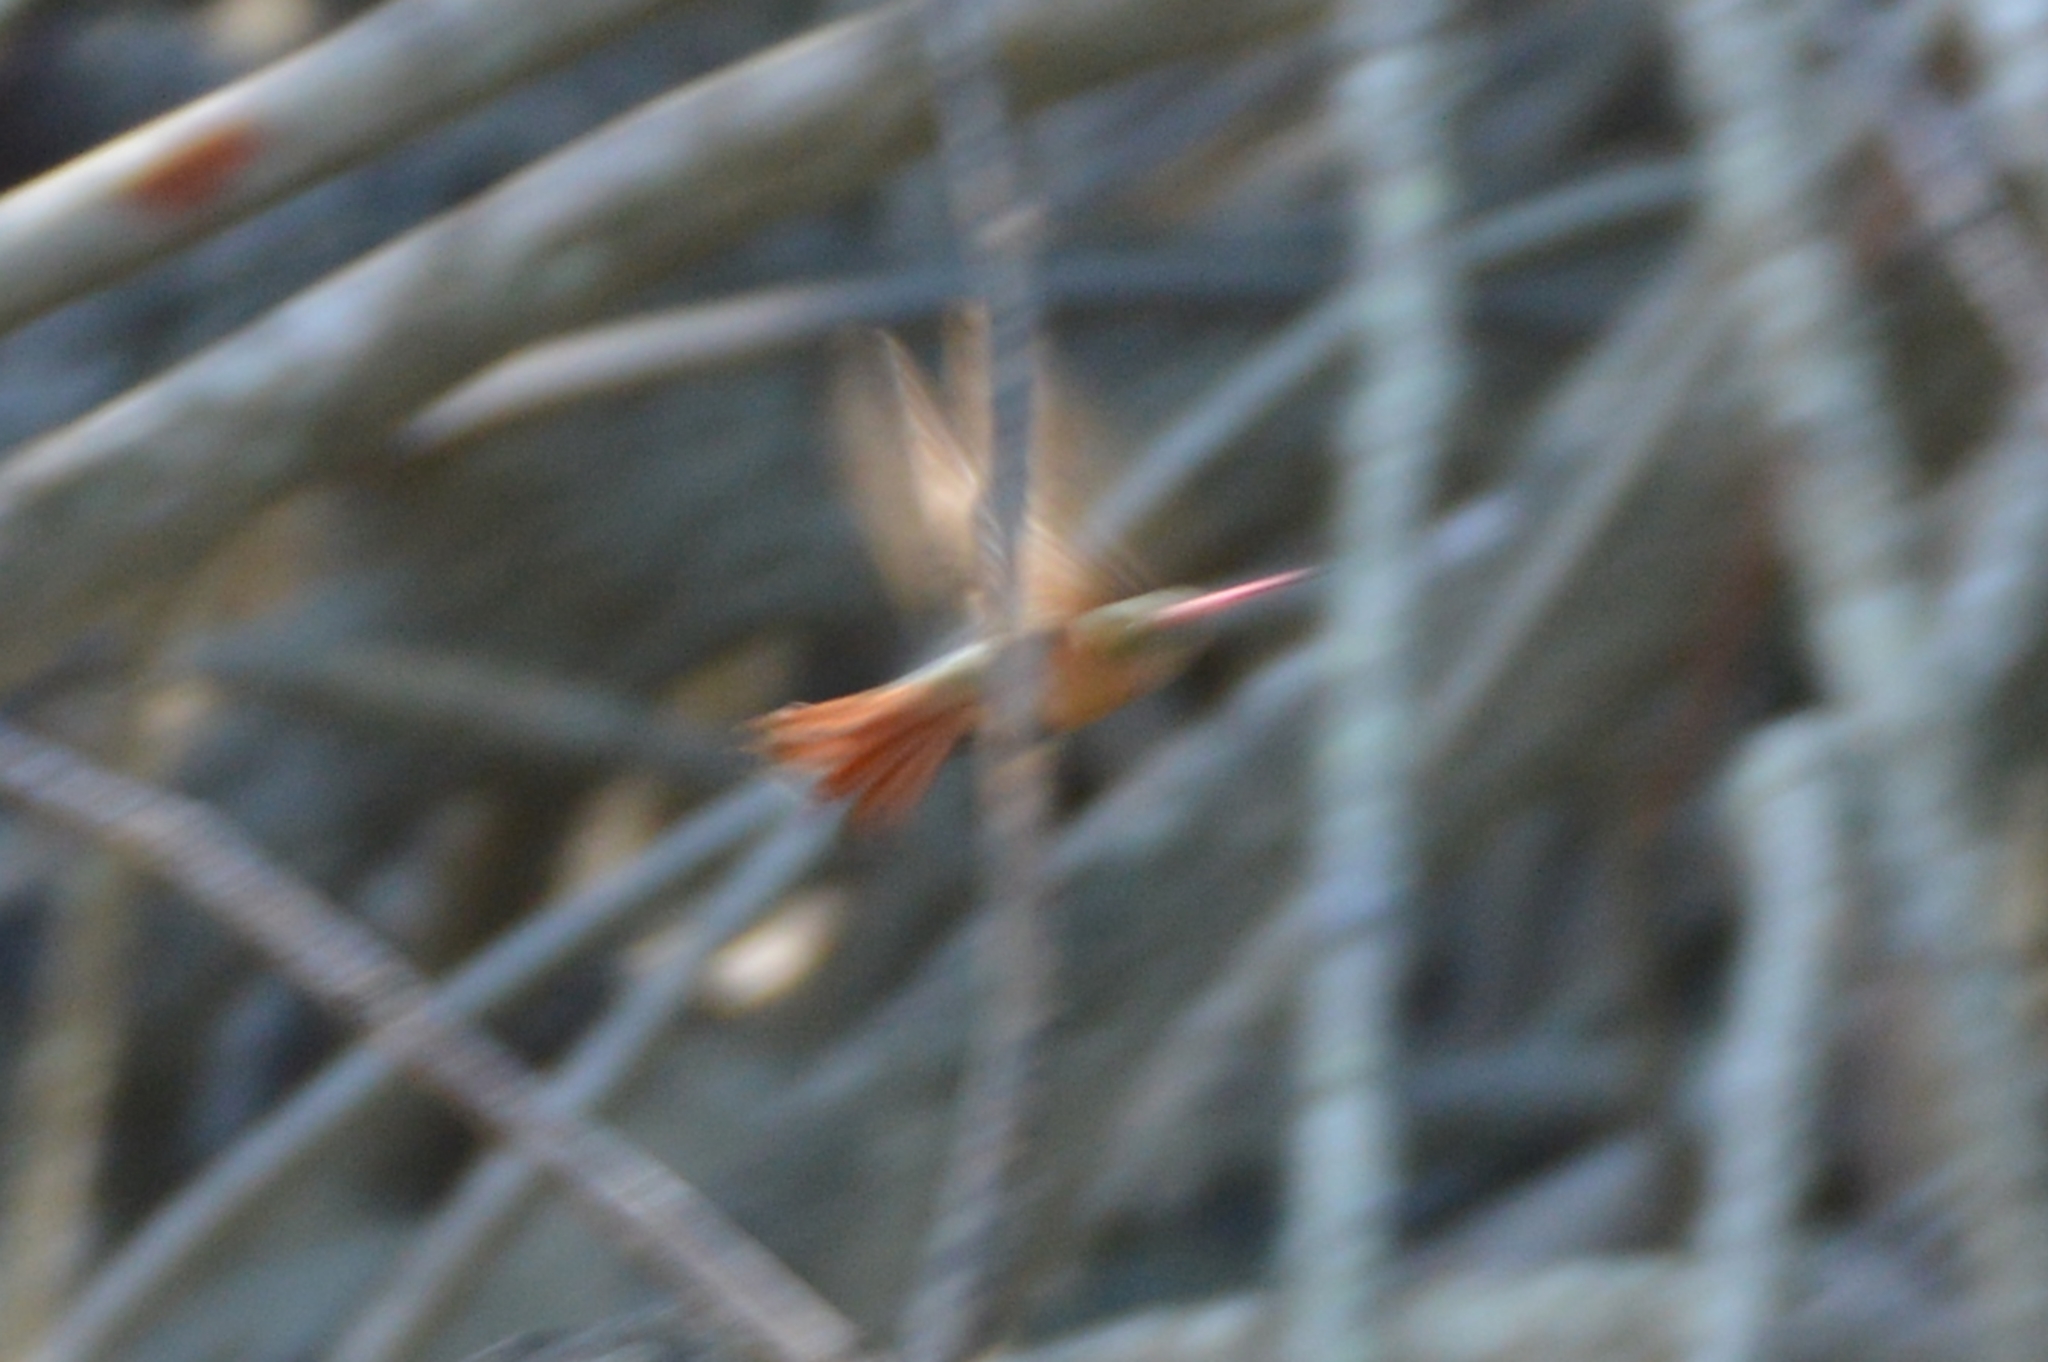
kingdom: Animalia
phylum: Chordata
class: Aves
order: Apodiformes
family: Trochilidae
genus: Amazilia
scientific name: Amazilia rutila
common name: Cinnamon hummingbird
